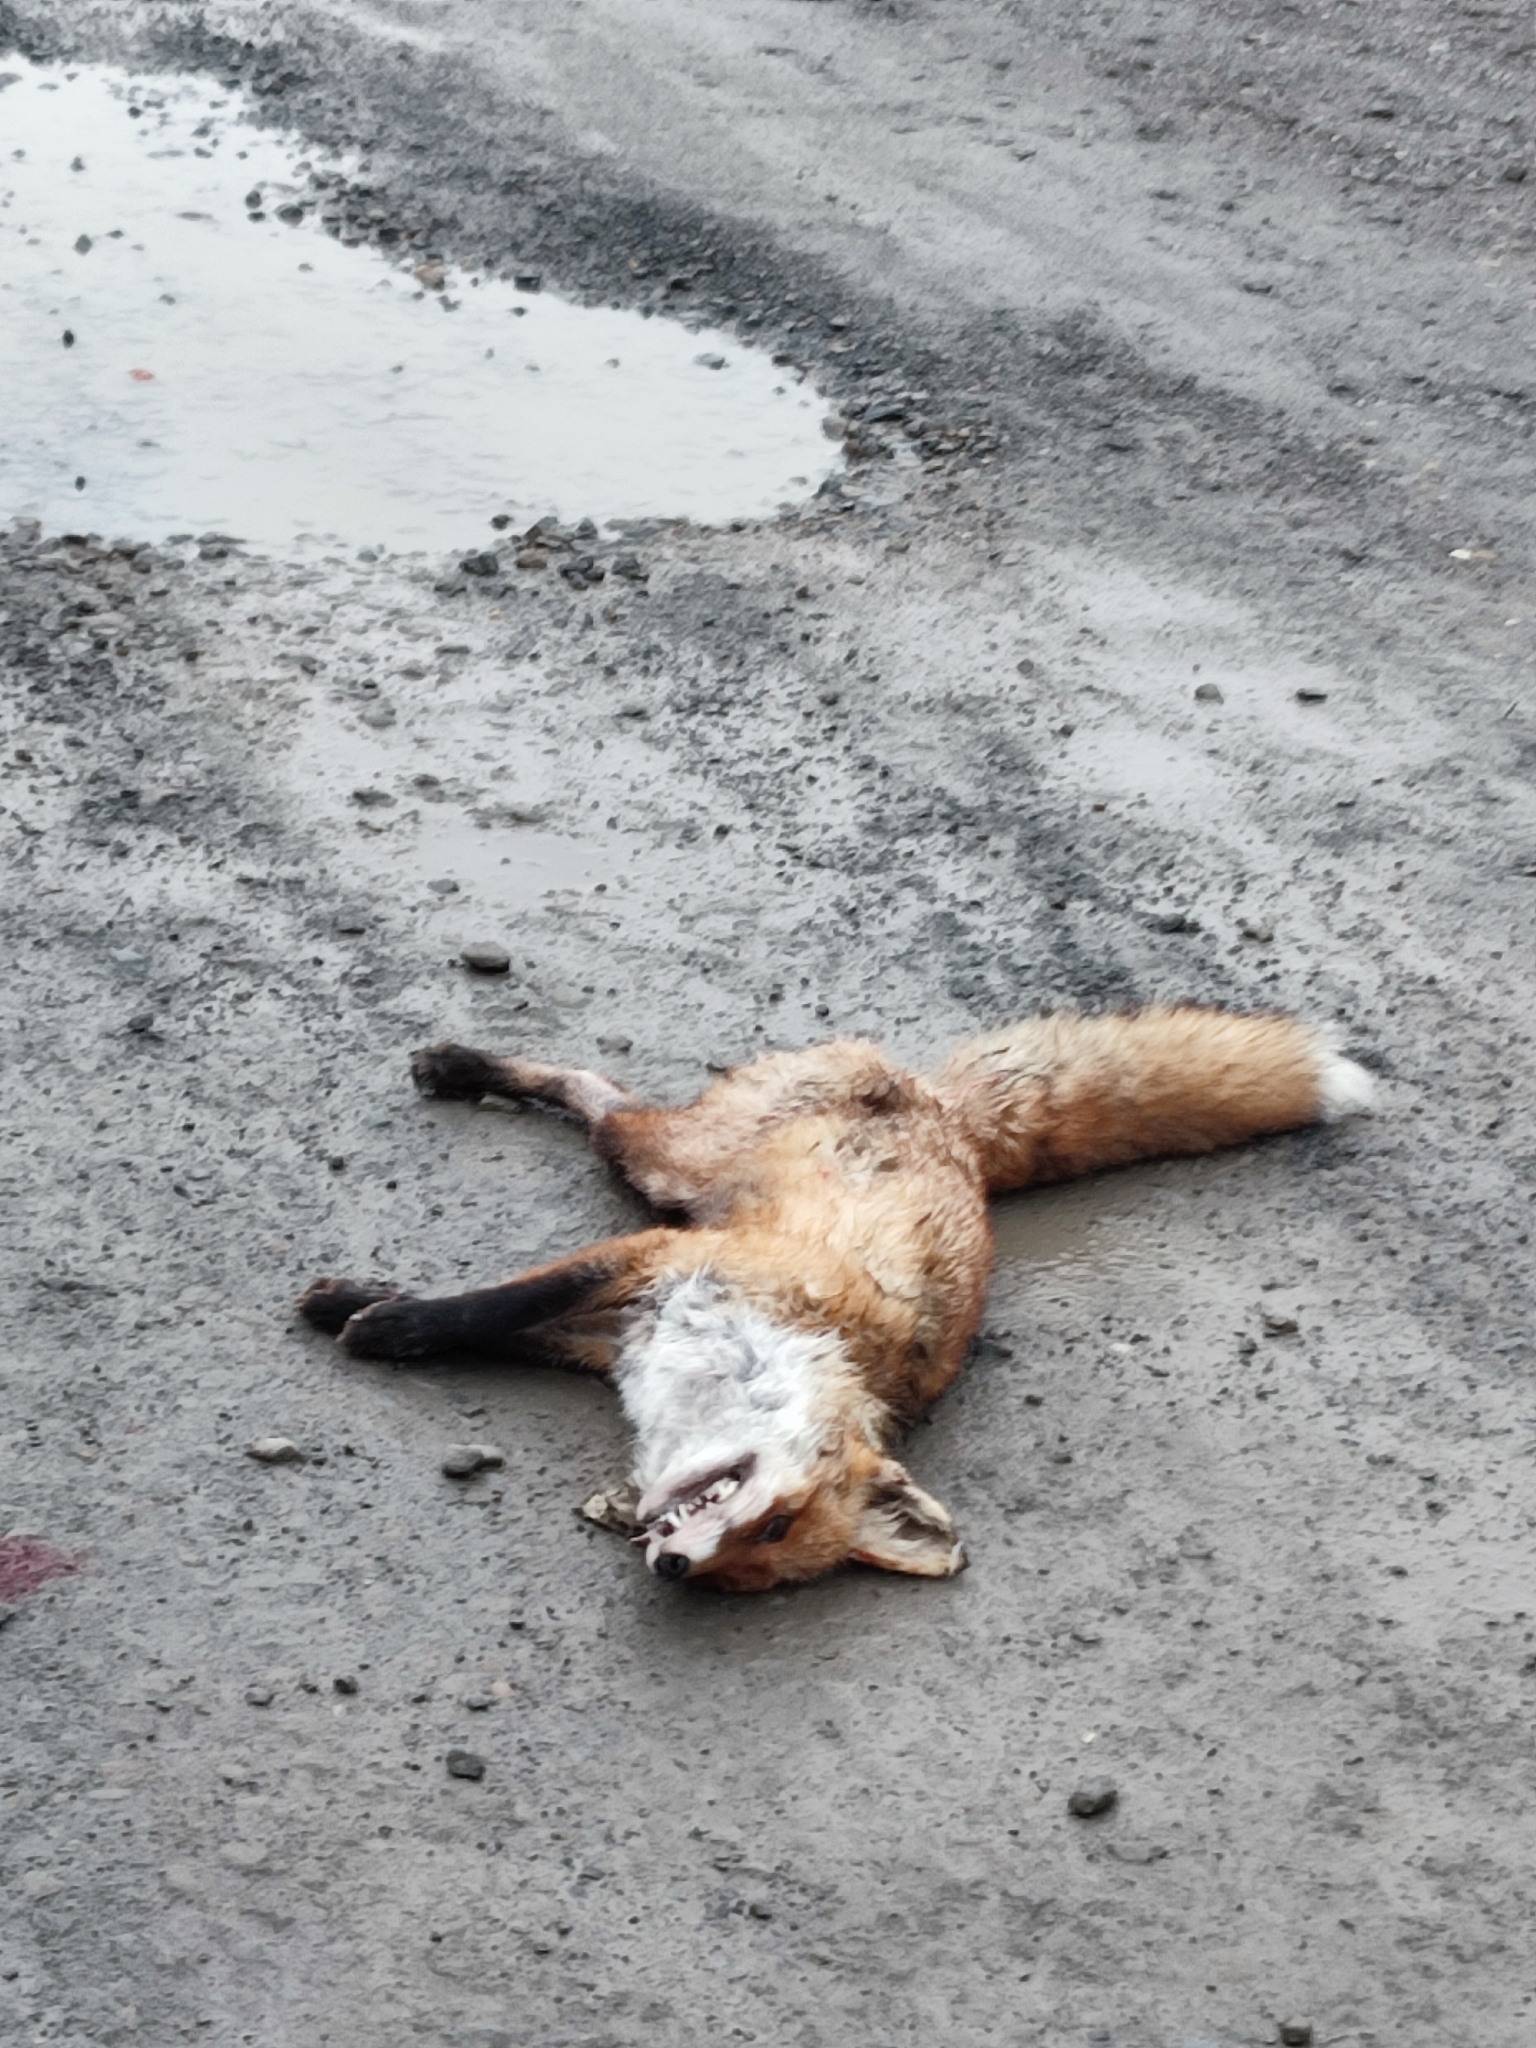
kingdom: Animalia
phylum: Chordata
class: Mammalia
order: Carnivora
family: Canidae
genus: Vulpes
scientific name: Vulpes vulpes
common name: Red fox
